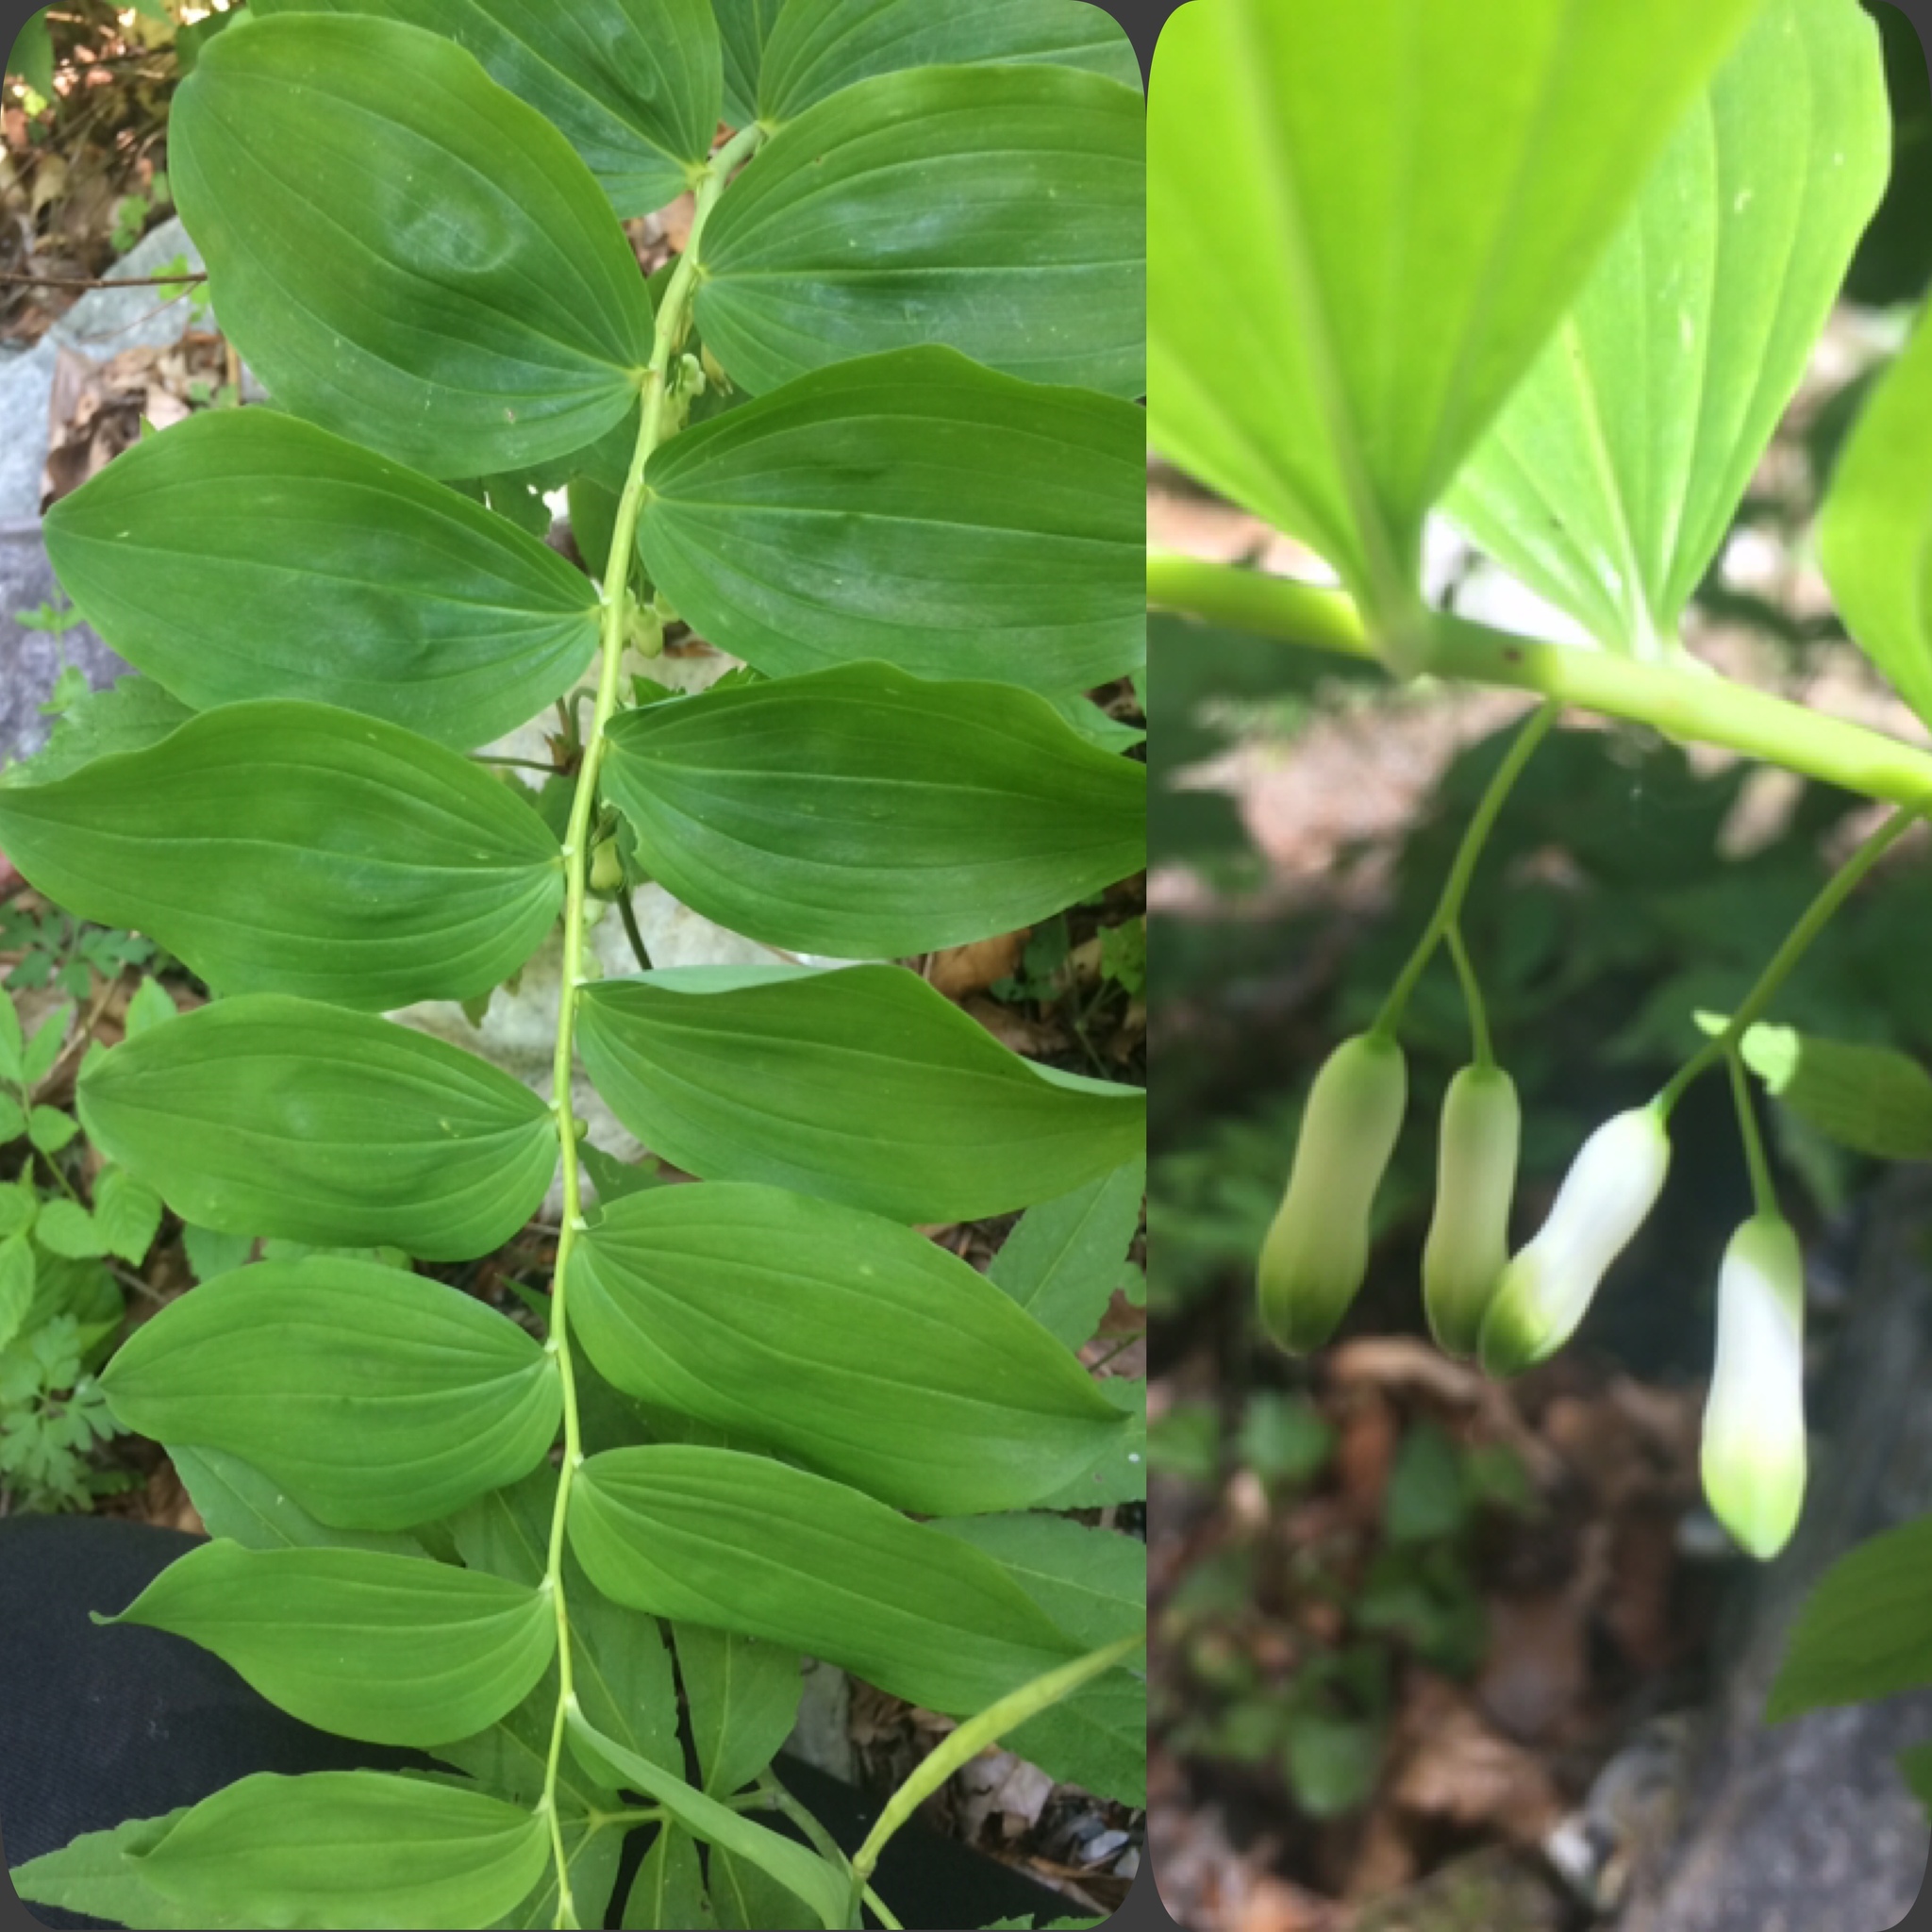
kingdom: Plantae
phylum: Tracheophyta
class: Liliopsida
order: Asparagales
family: Asparagaceae
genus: Polygonatum
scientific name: Polygonatum multiflorum
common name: Solomon's-seal
